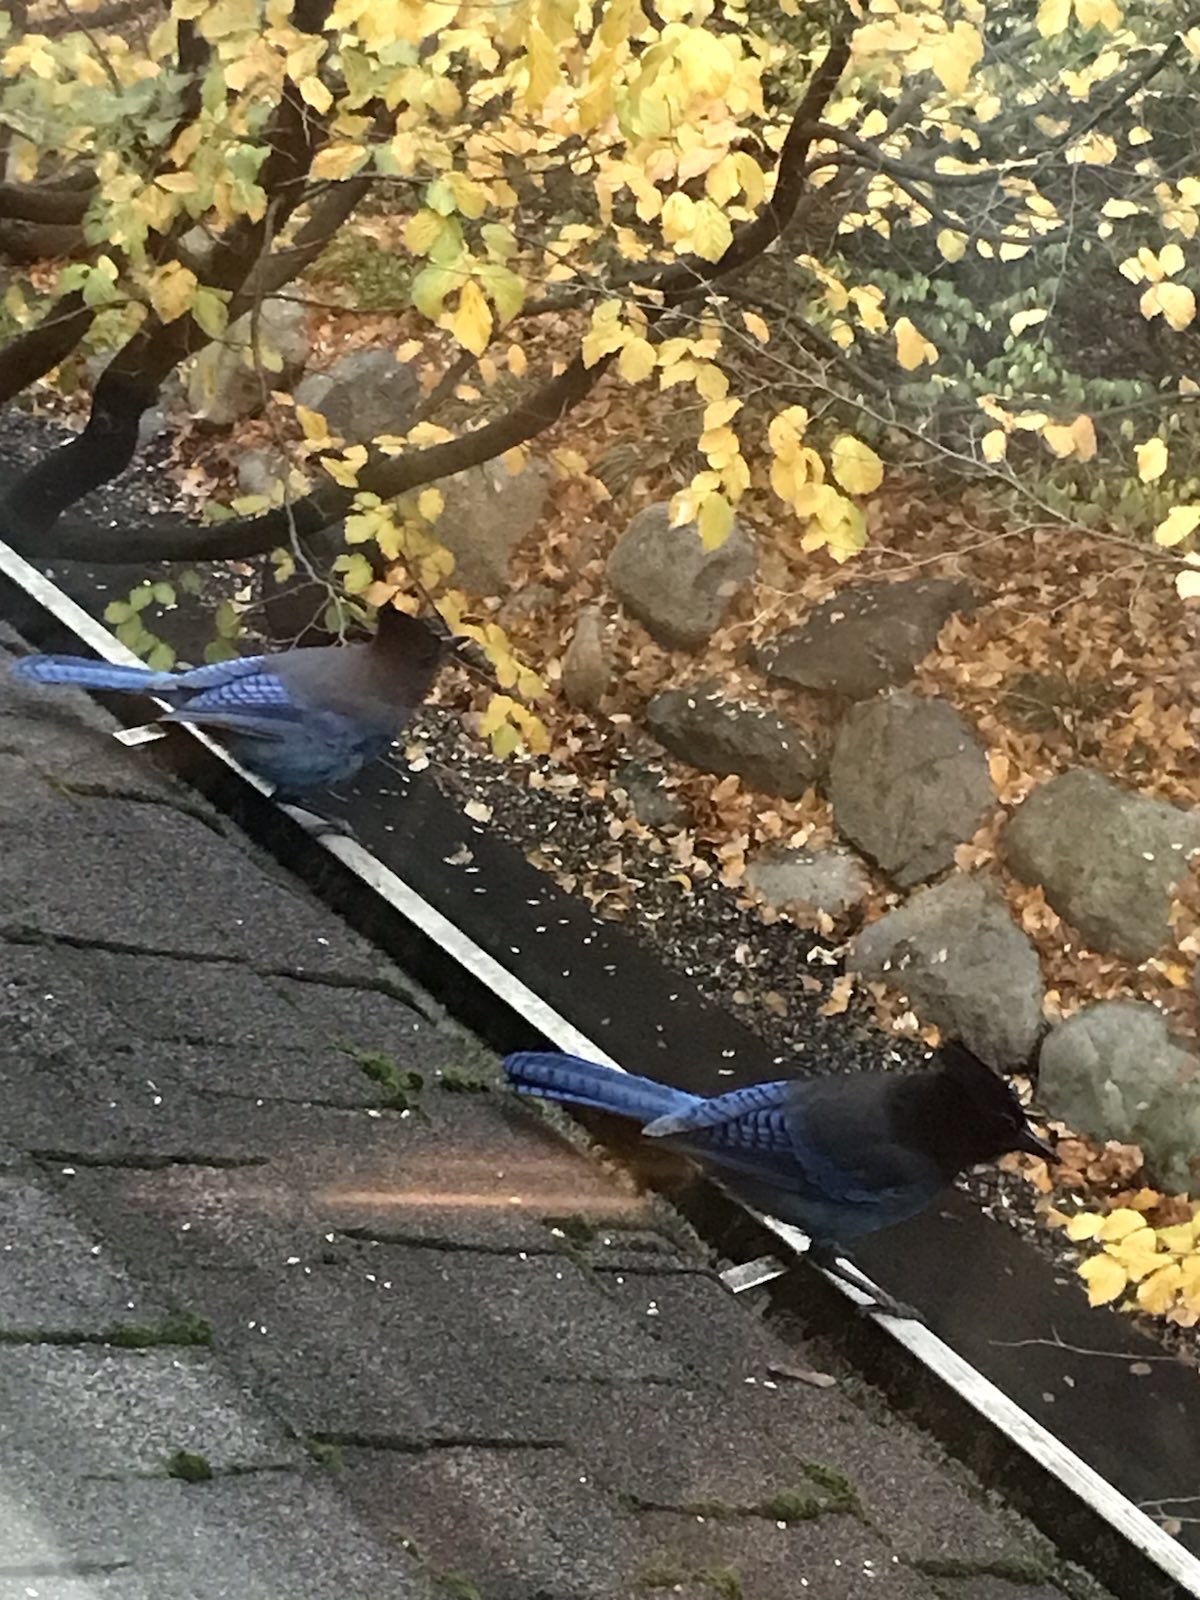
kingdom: Animalia
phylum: Chordata
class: Aves
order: Passeriformes
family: Corvidae
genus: Cyanocitta
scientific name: Cyanocitta stelleri
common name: Steller's jay
